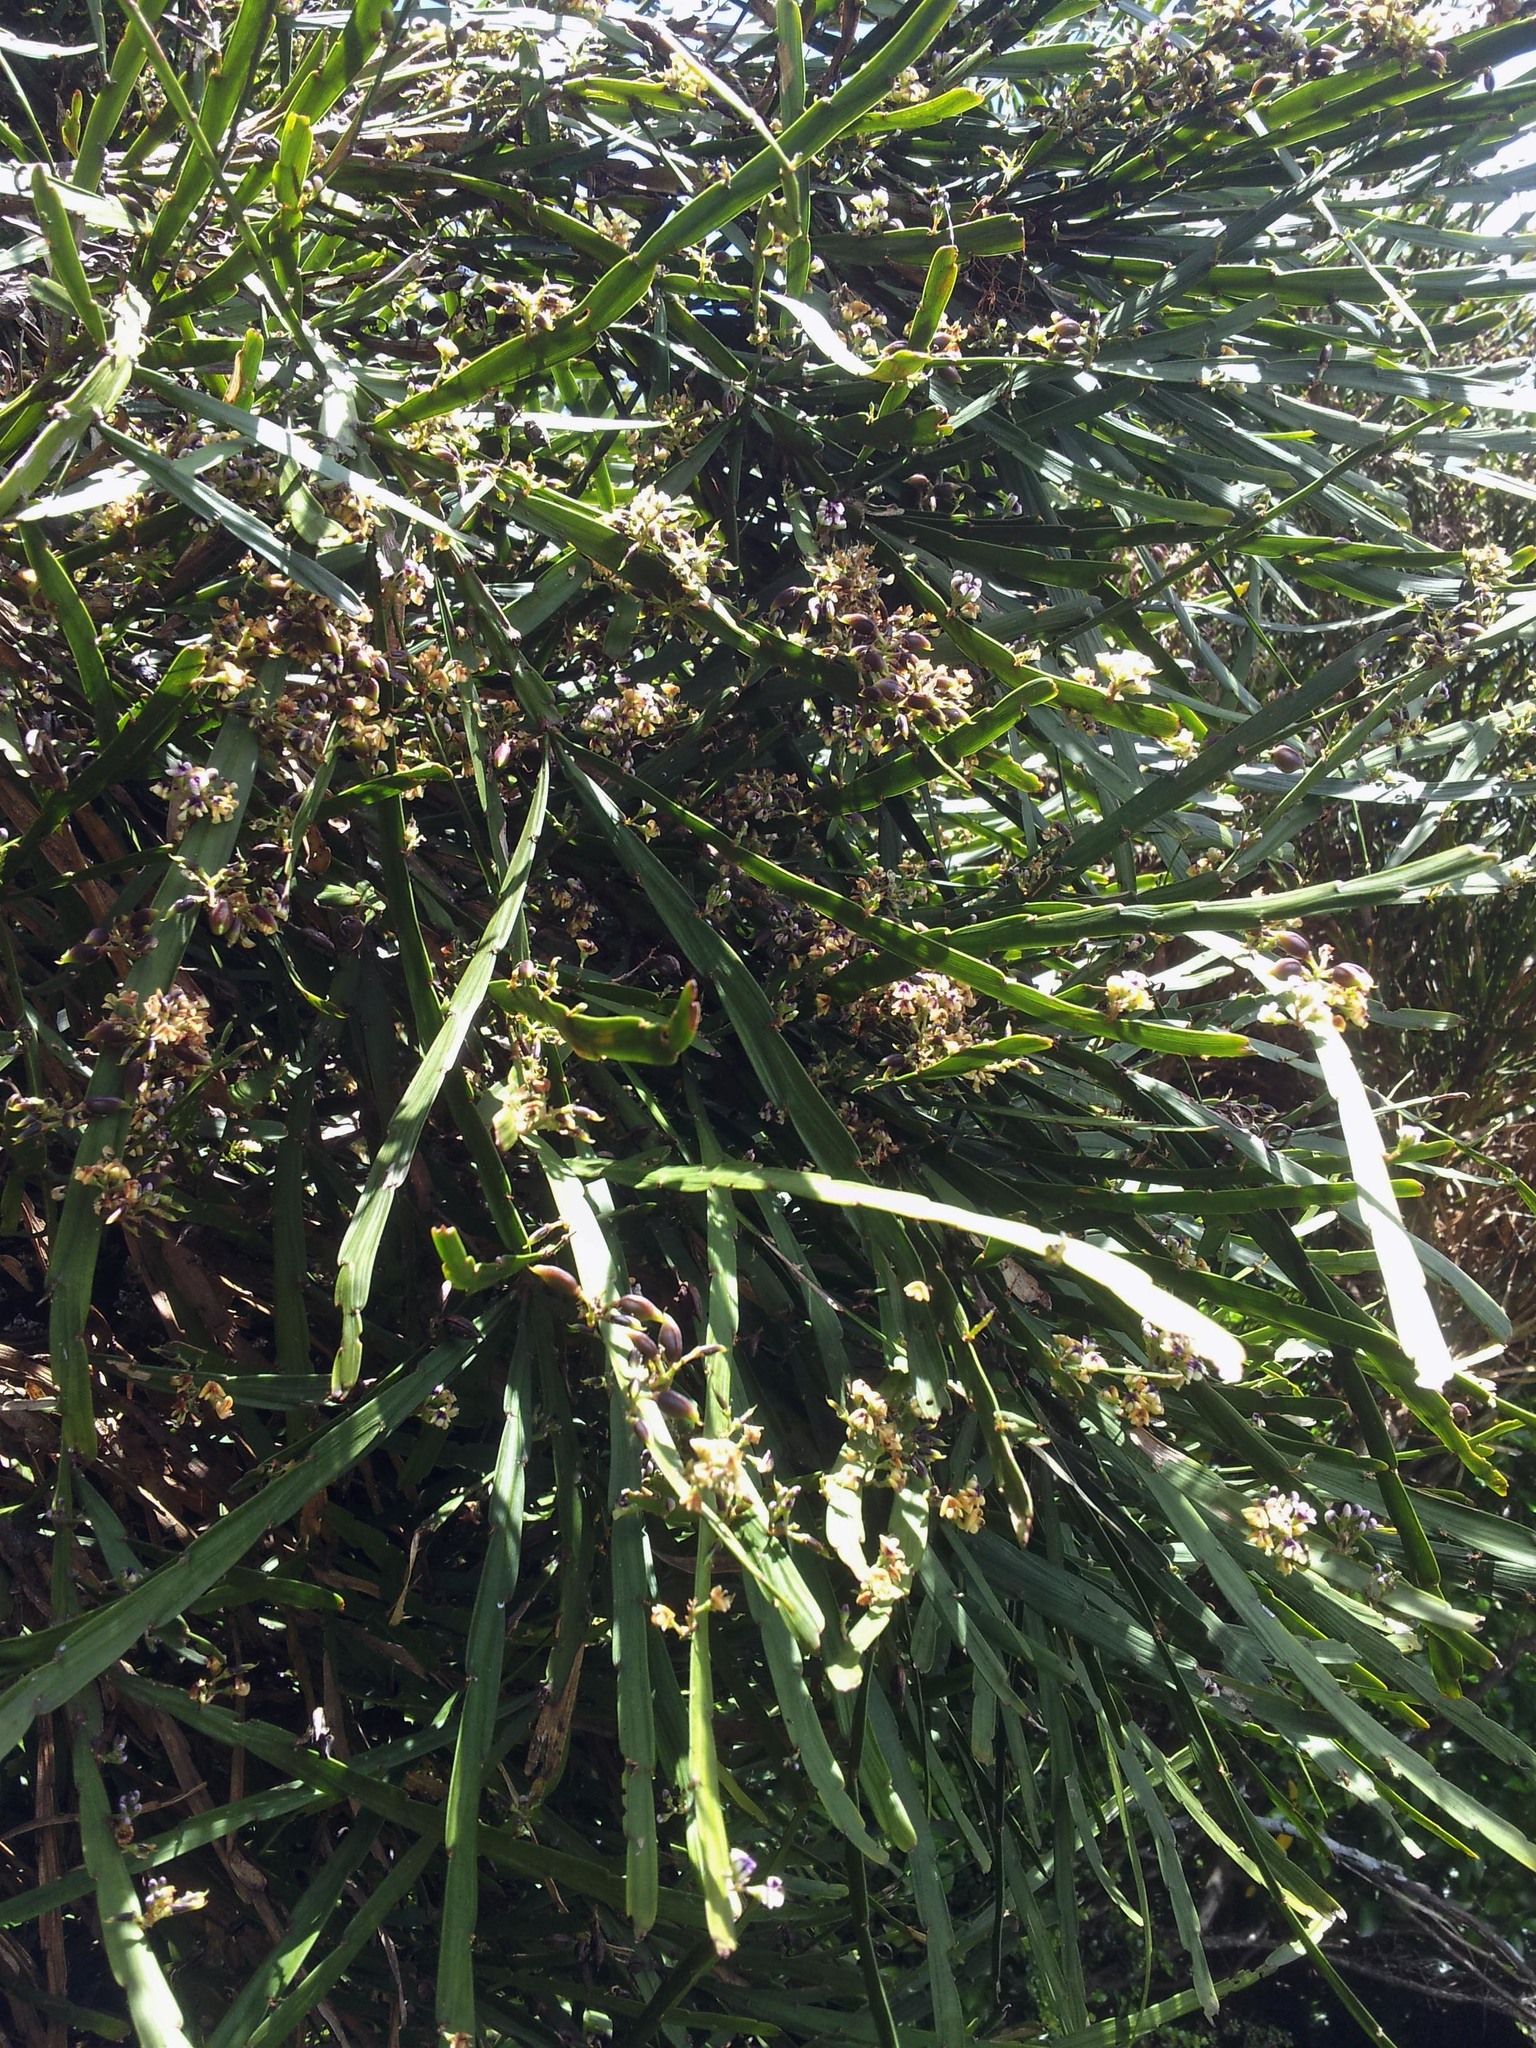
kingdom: Plantae
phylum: Tracheophyta
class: Magnoliopsida
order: Fabales
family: Fabaceae
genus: Carmichaelia
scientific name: Carmichaelia australis
